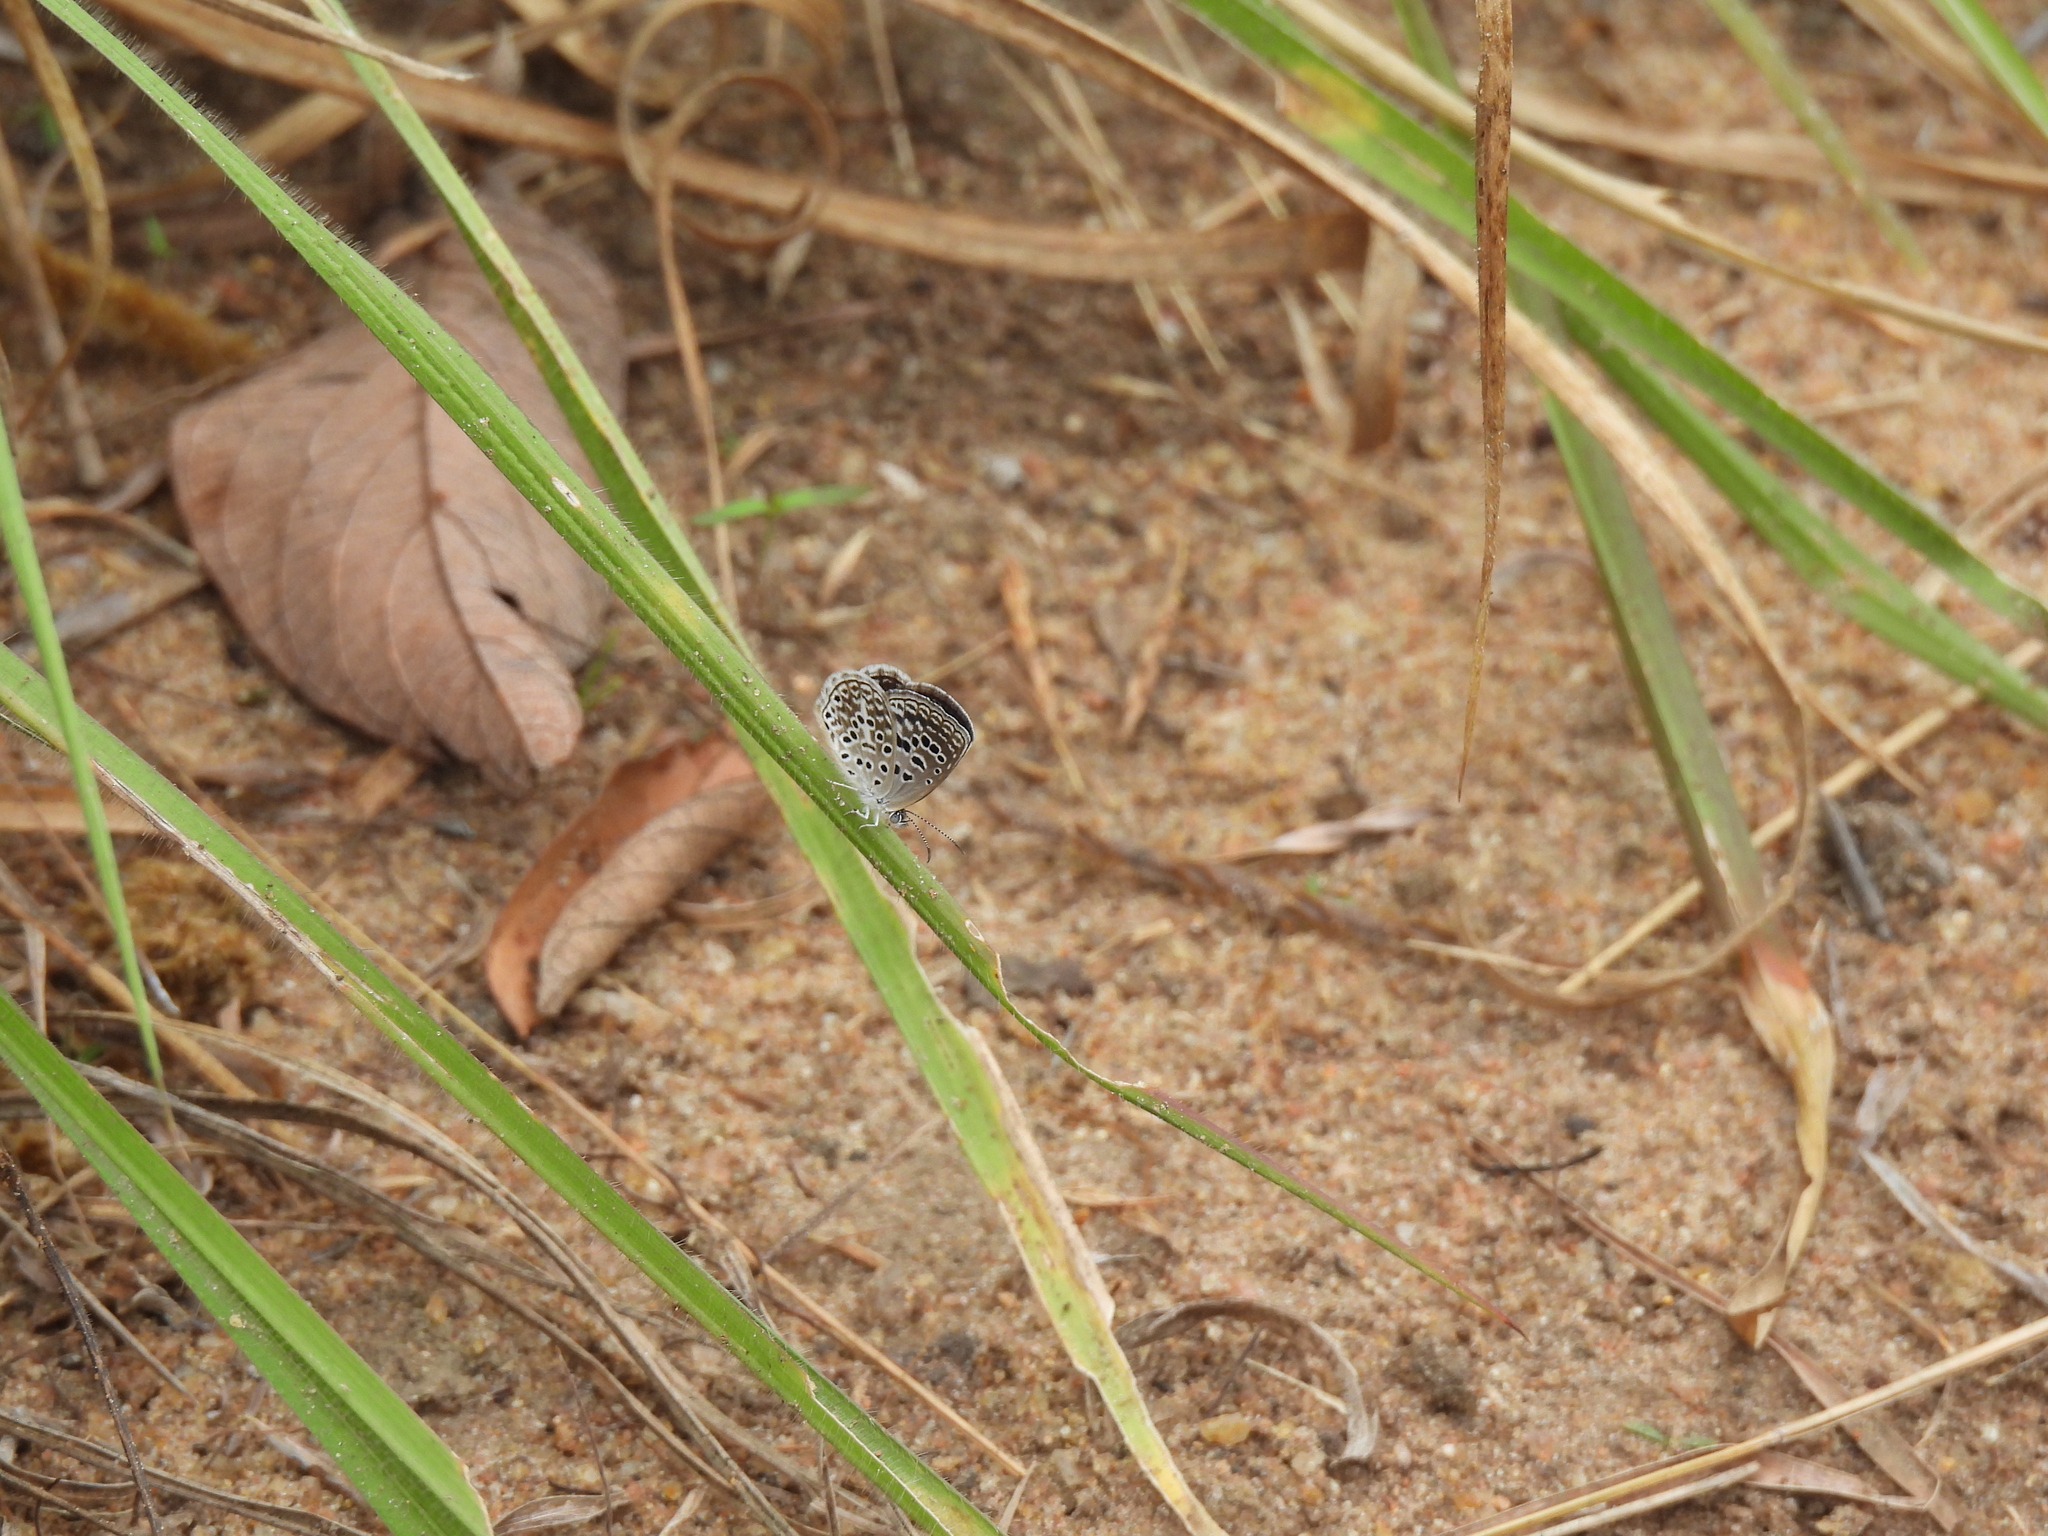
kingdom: Animalia
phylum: Arthropoda
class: Insecta
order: Lepidoptera
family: Lycaenidae
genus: Actizera
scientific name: Actizera lucida
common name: Rayed blue
